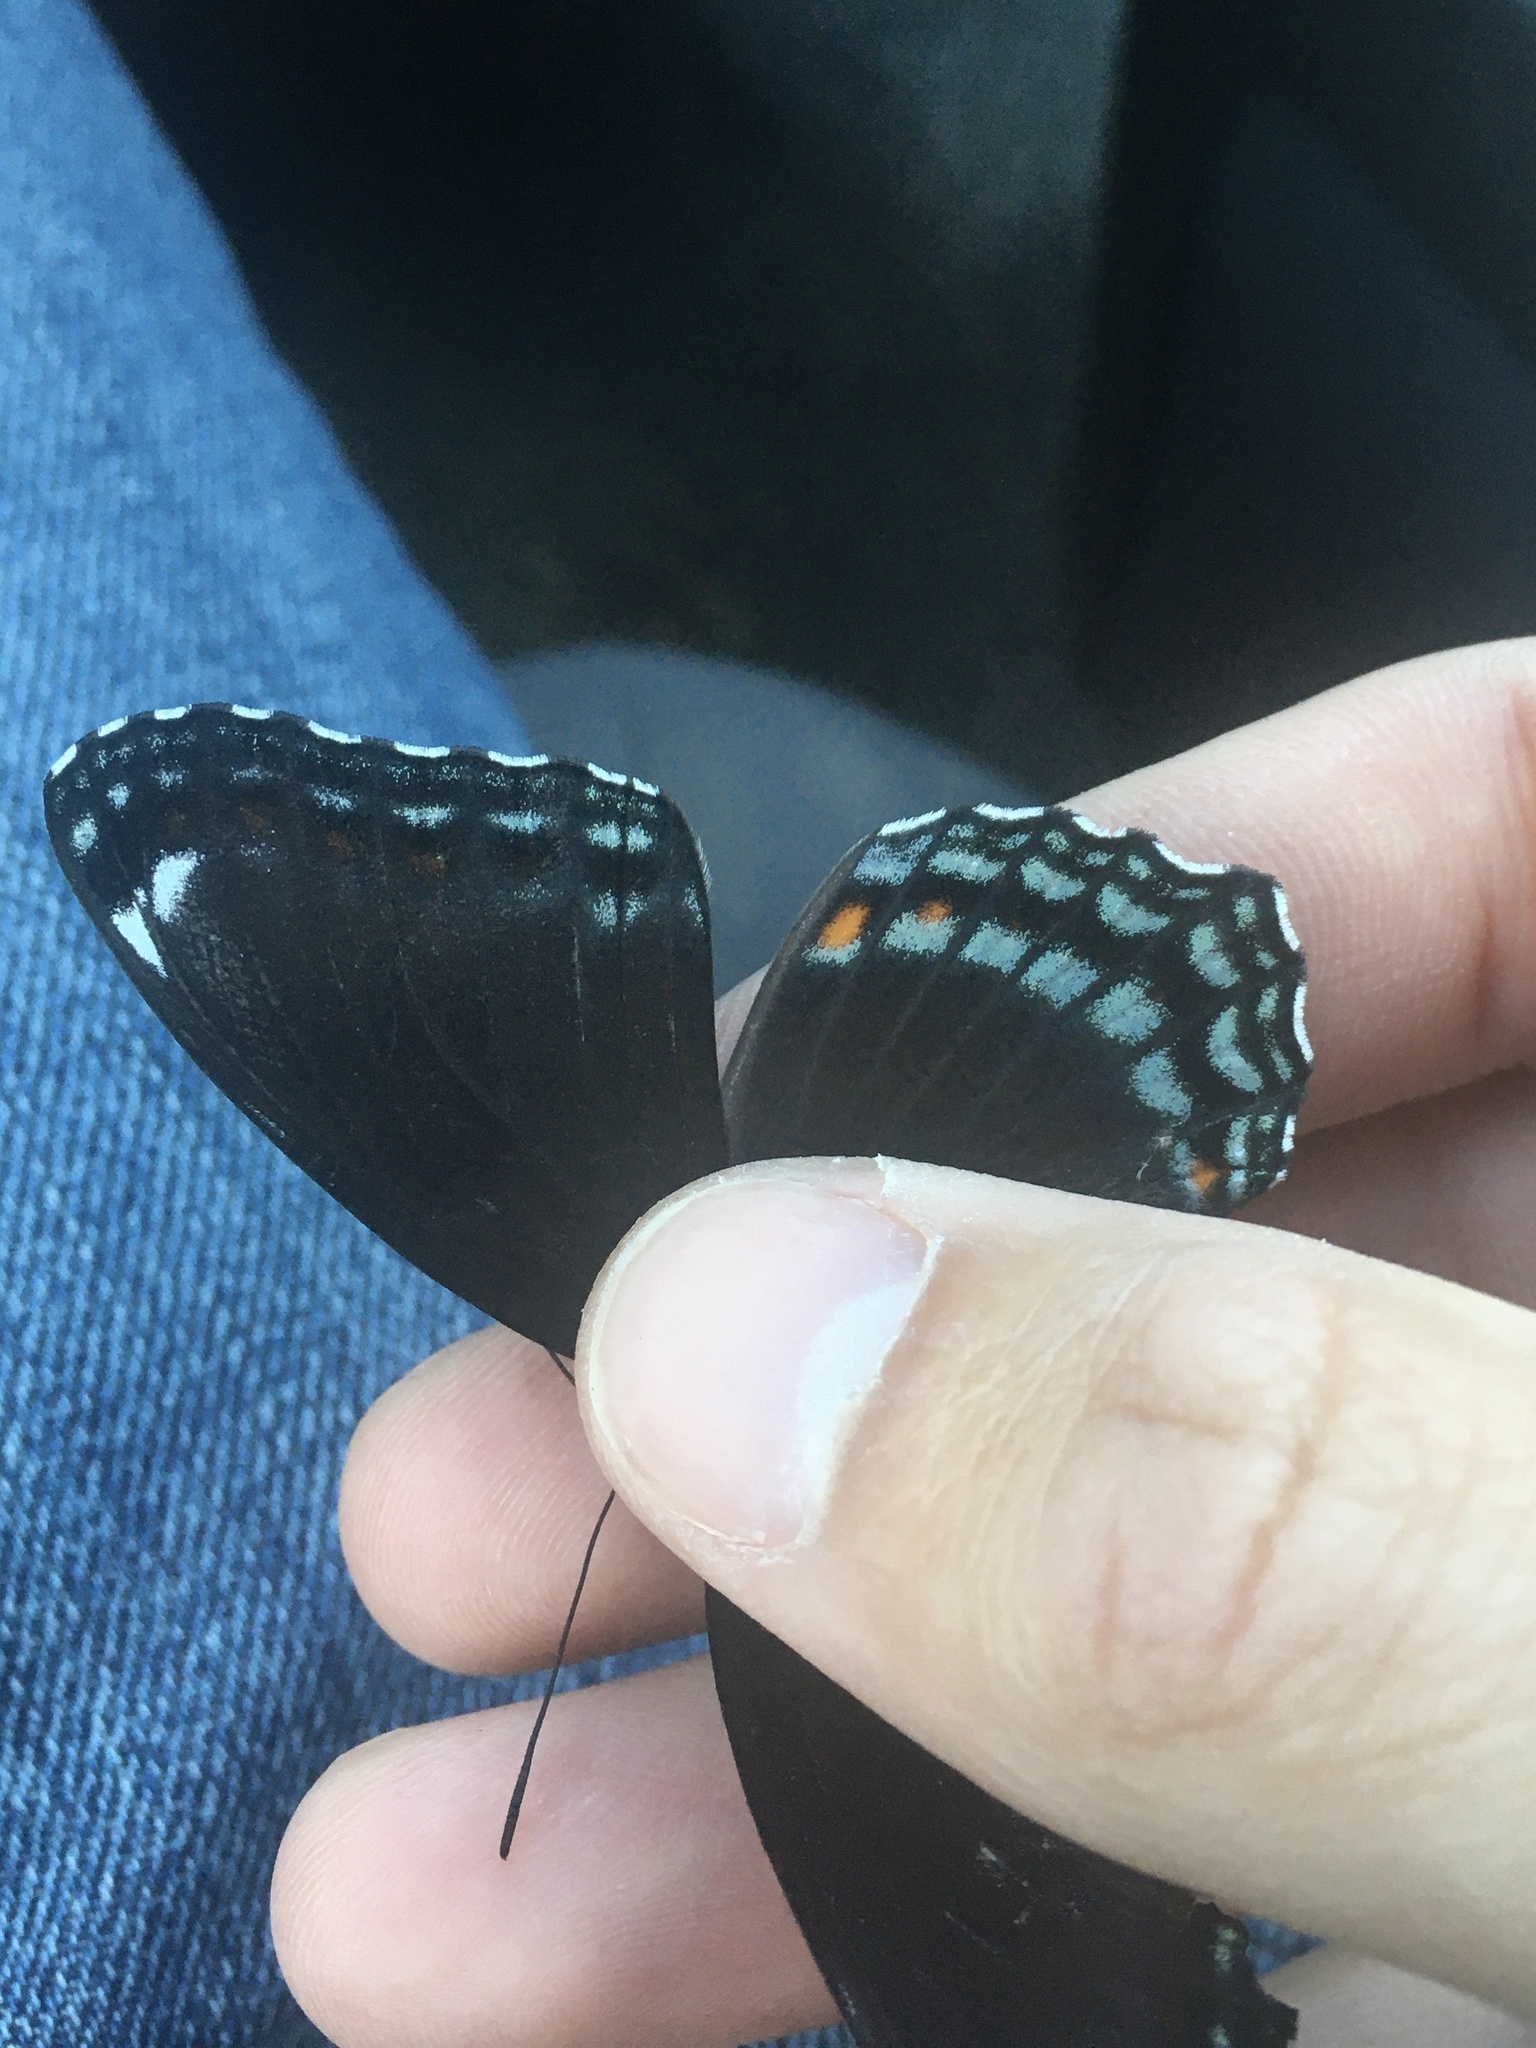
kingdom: Animalia
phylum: Arthropoda
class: Insecta
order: Lepidoptera
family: Nymphalidae
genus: Limenitis
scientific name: Limenitis astyanax
